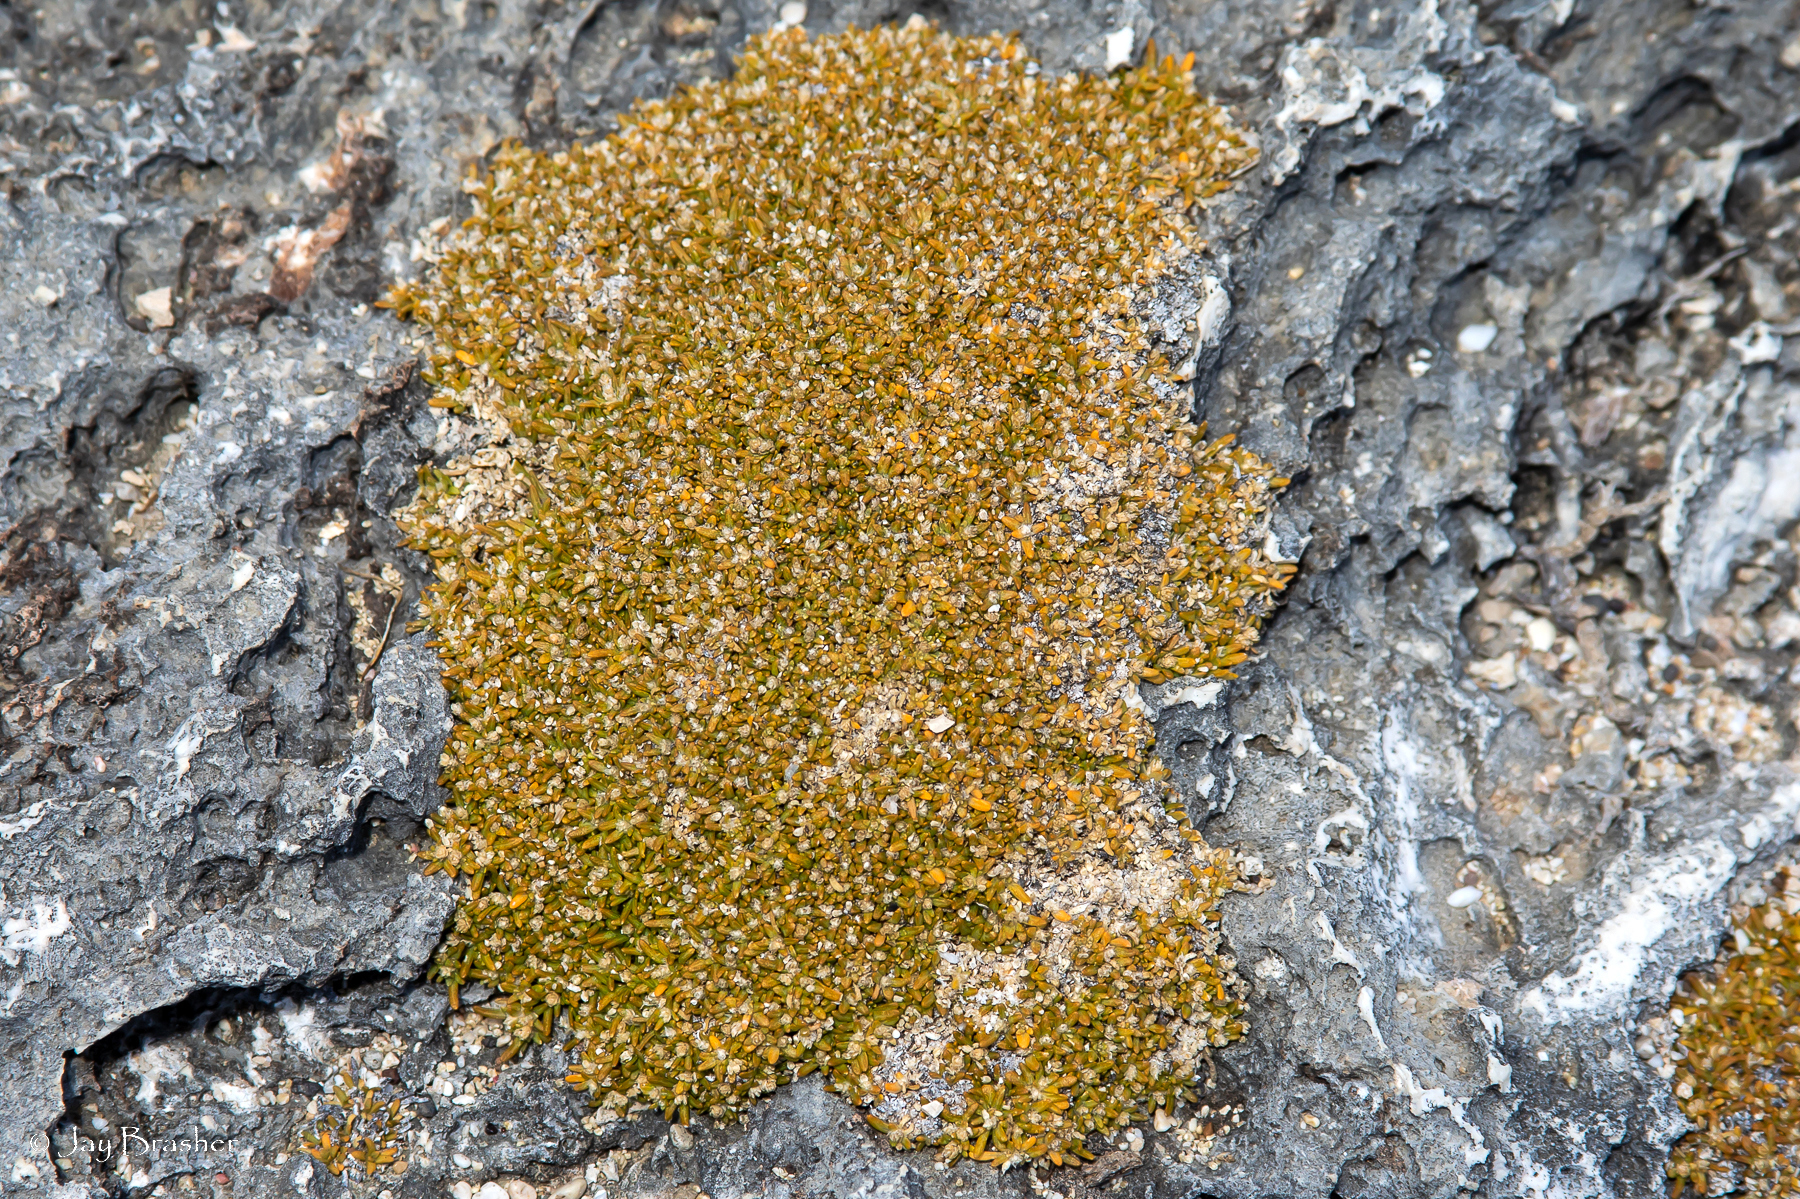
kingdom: Plantae
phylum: Tracheophyta
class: Magnoliopsida
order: Caryophyllales
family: Amaranthaceae
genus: Gomphrena
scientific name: Gomphrena muscoides
